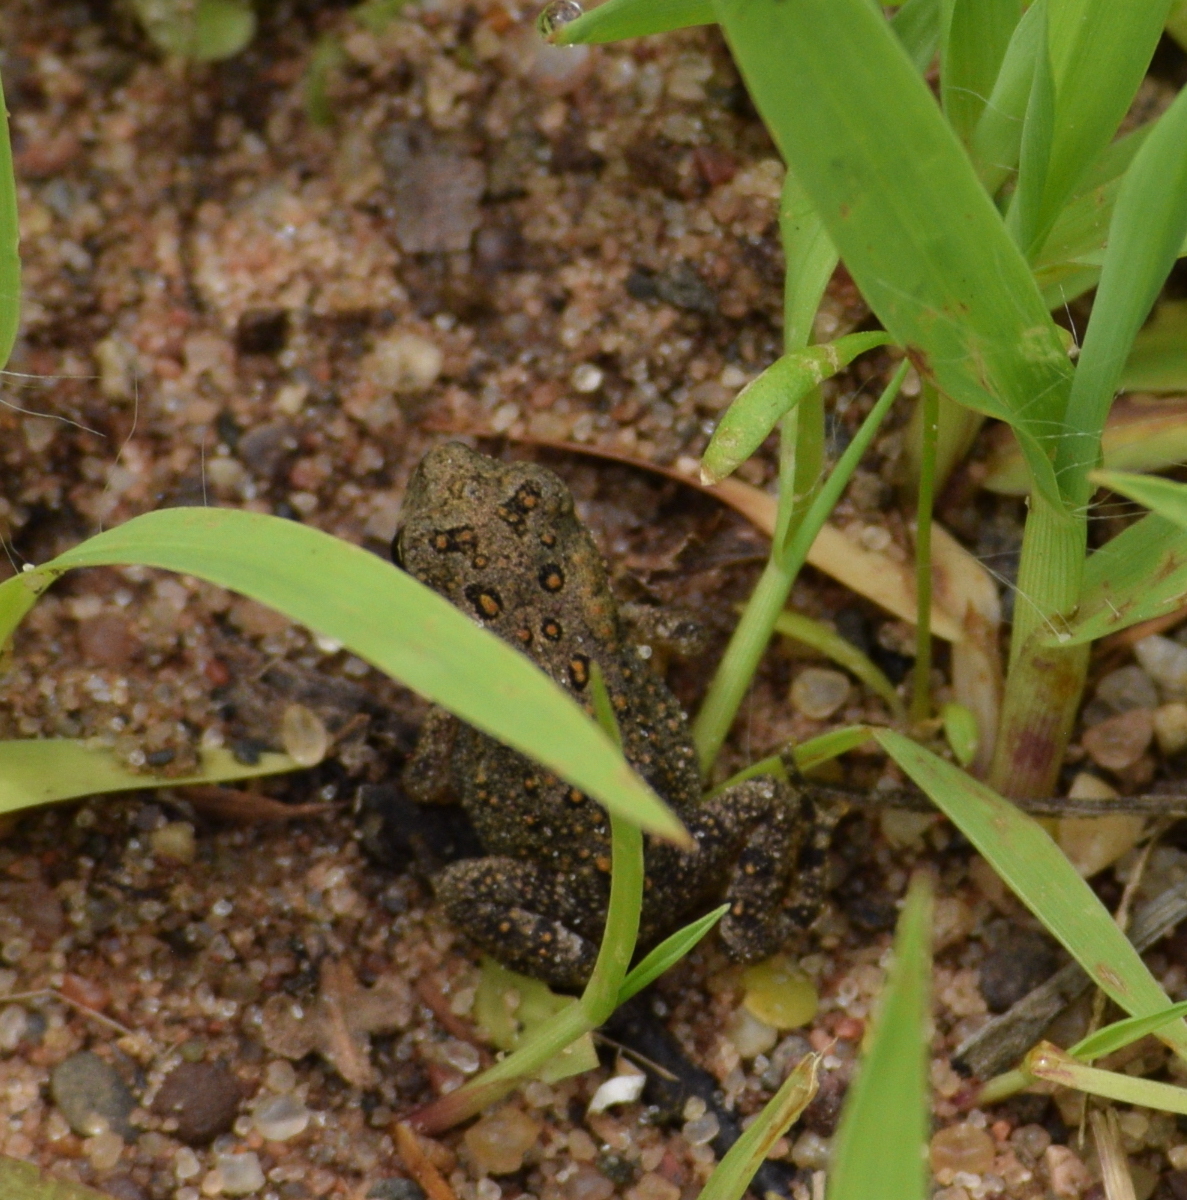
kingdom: Animalia
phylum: Chordata
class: Amphibia
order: Anura
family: Bufonidae
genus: Anaxyrus
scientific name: Anaxyrus americanus
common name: American toad
